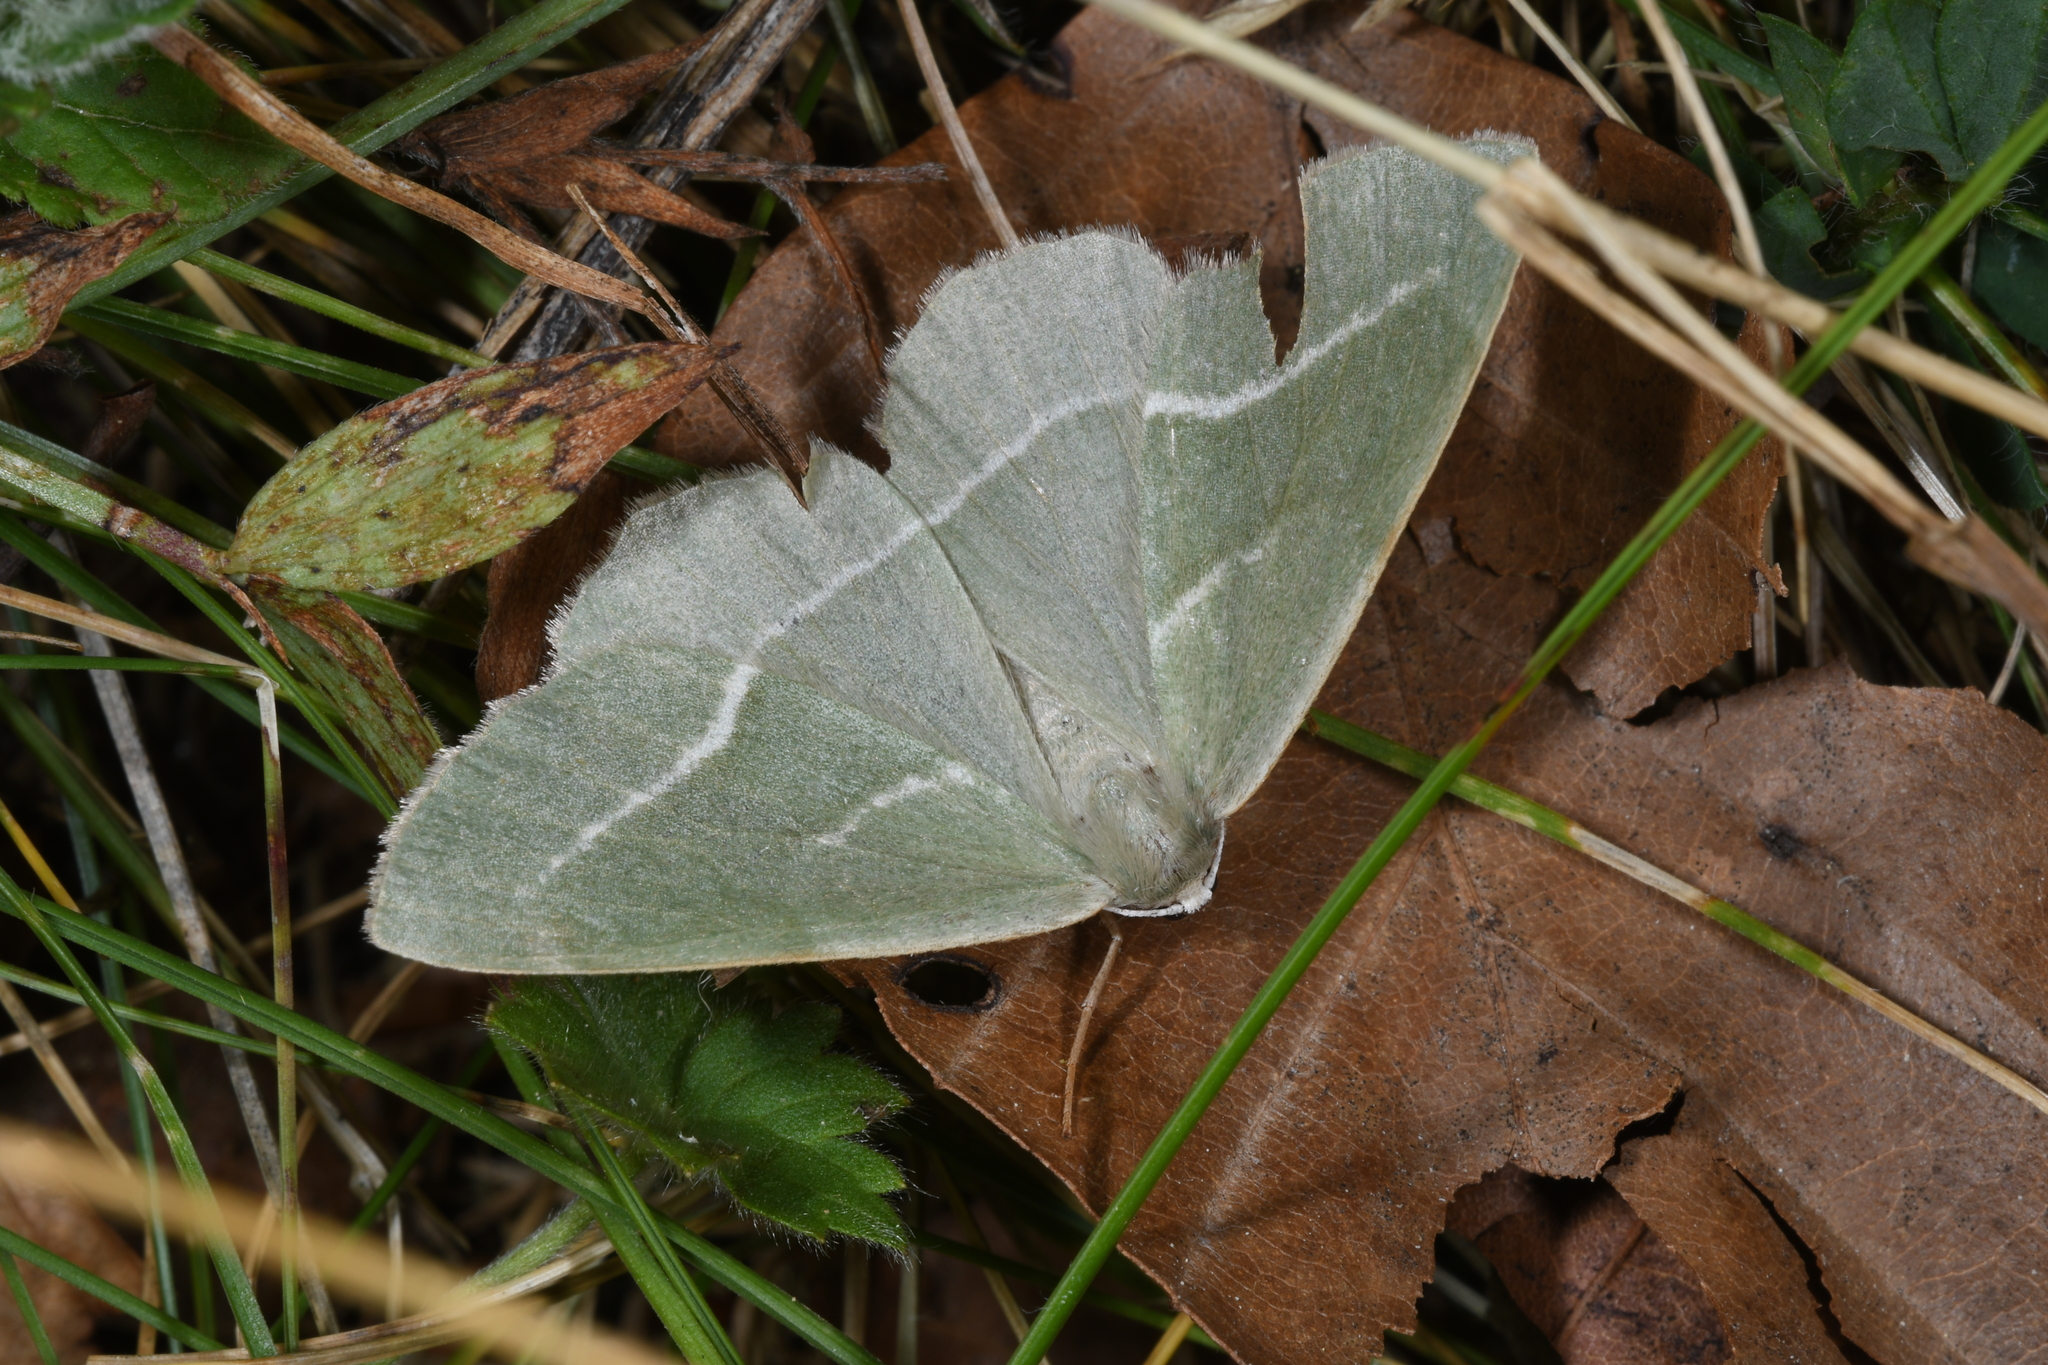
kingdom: Animalia
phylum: Arthropoda
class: Insecta
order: Lepidoptera
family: Geometridae
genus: Hylaea
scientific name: Hylaea fasciaria
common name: Barred red
